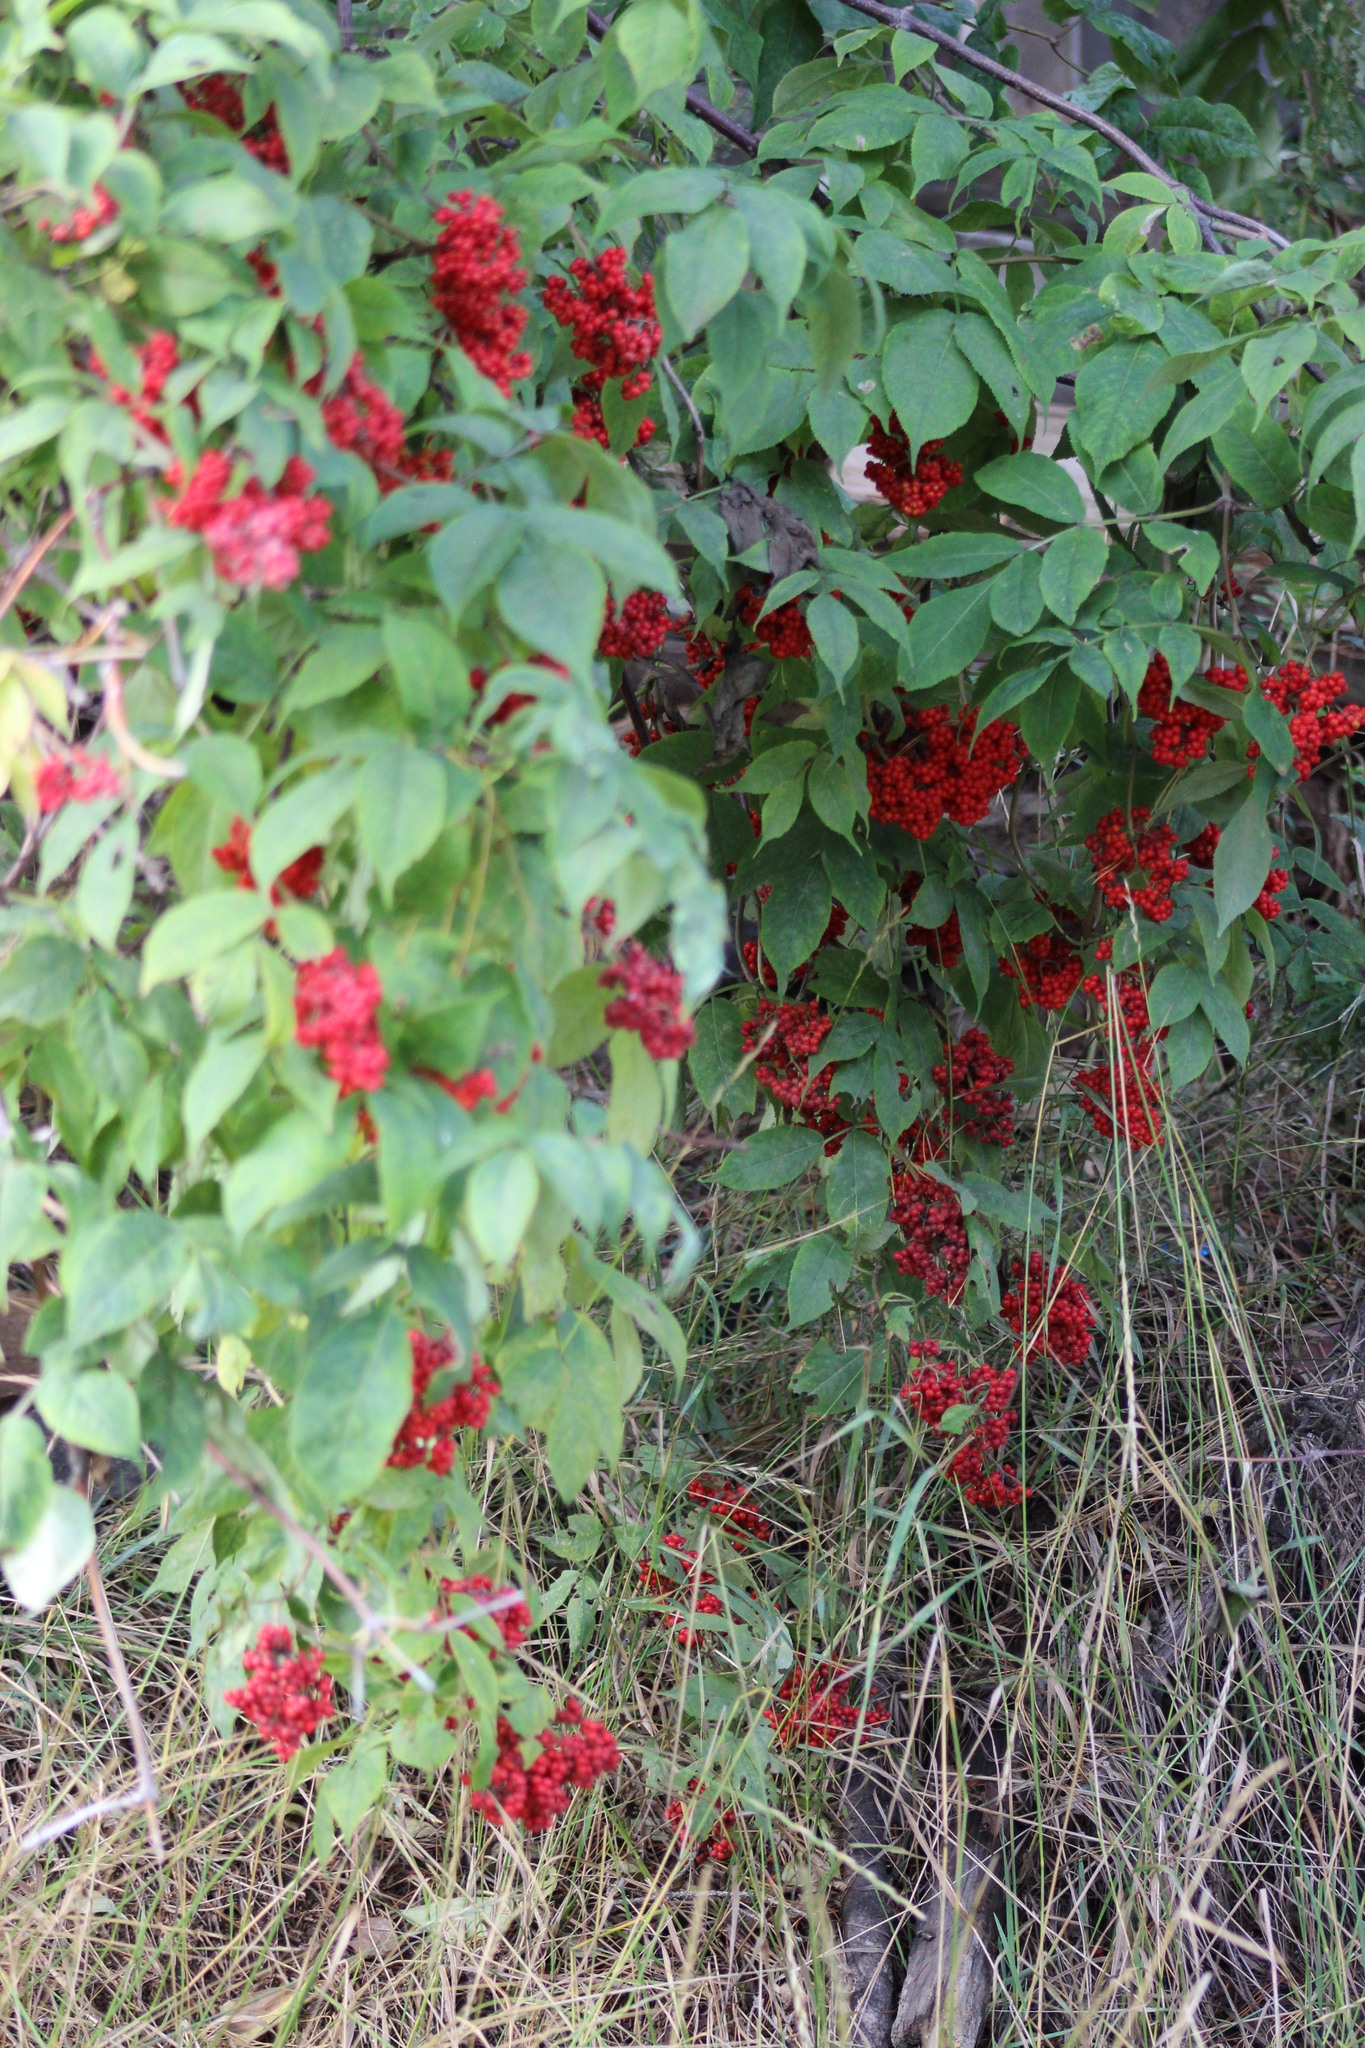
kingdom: Plantae
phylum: Tracheophyta
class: Magnoliopsida
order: Dipsacales
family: Viburnaceae
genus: Sambucus
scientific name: Sambucus sibirica
